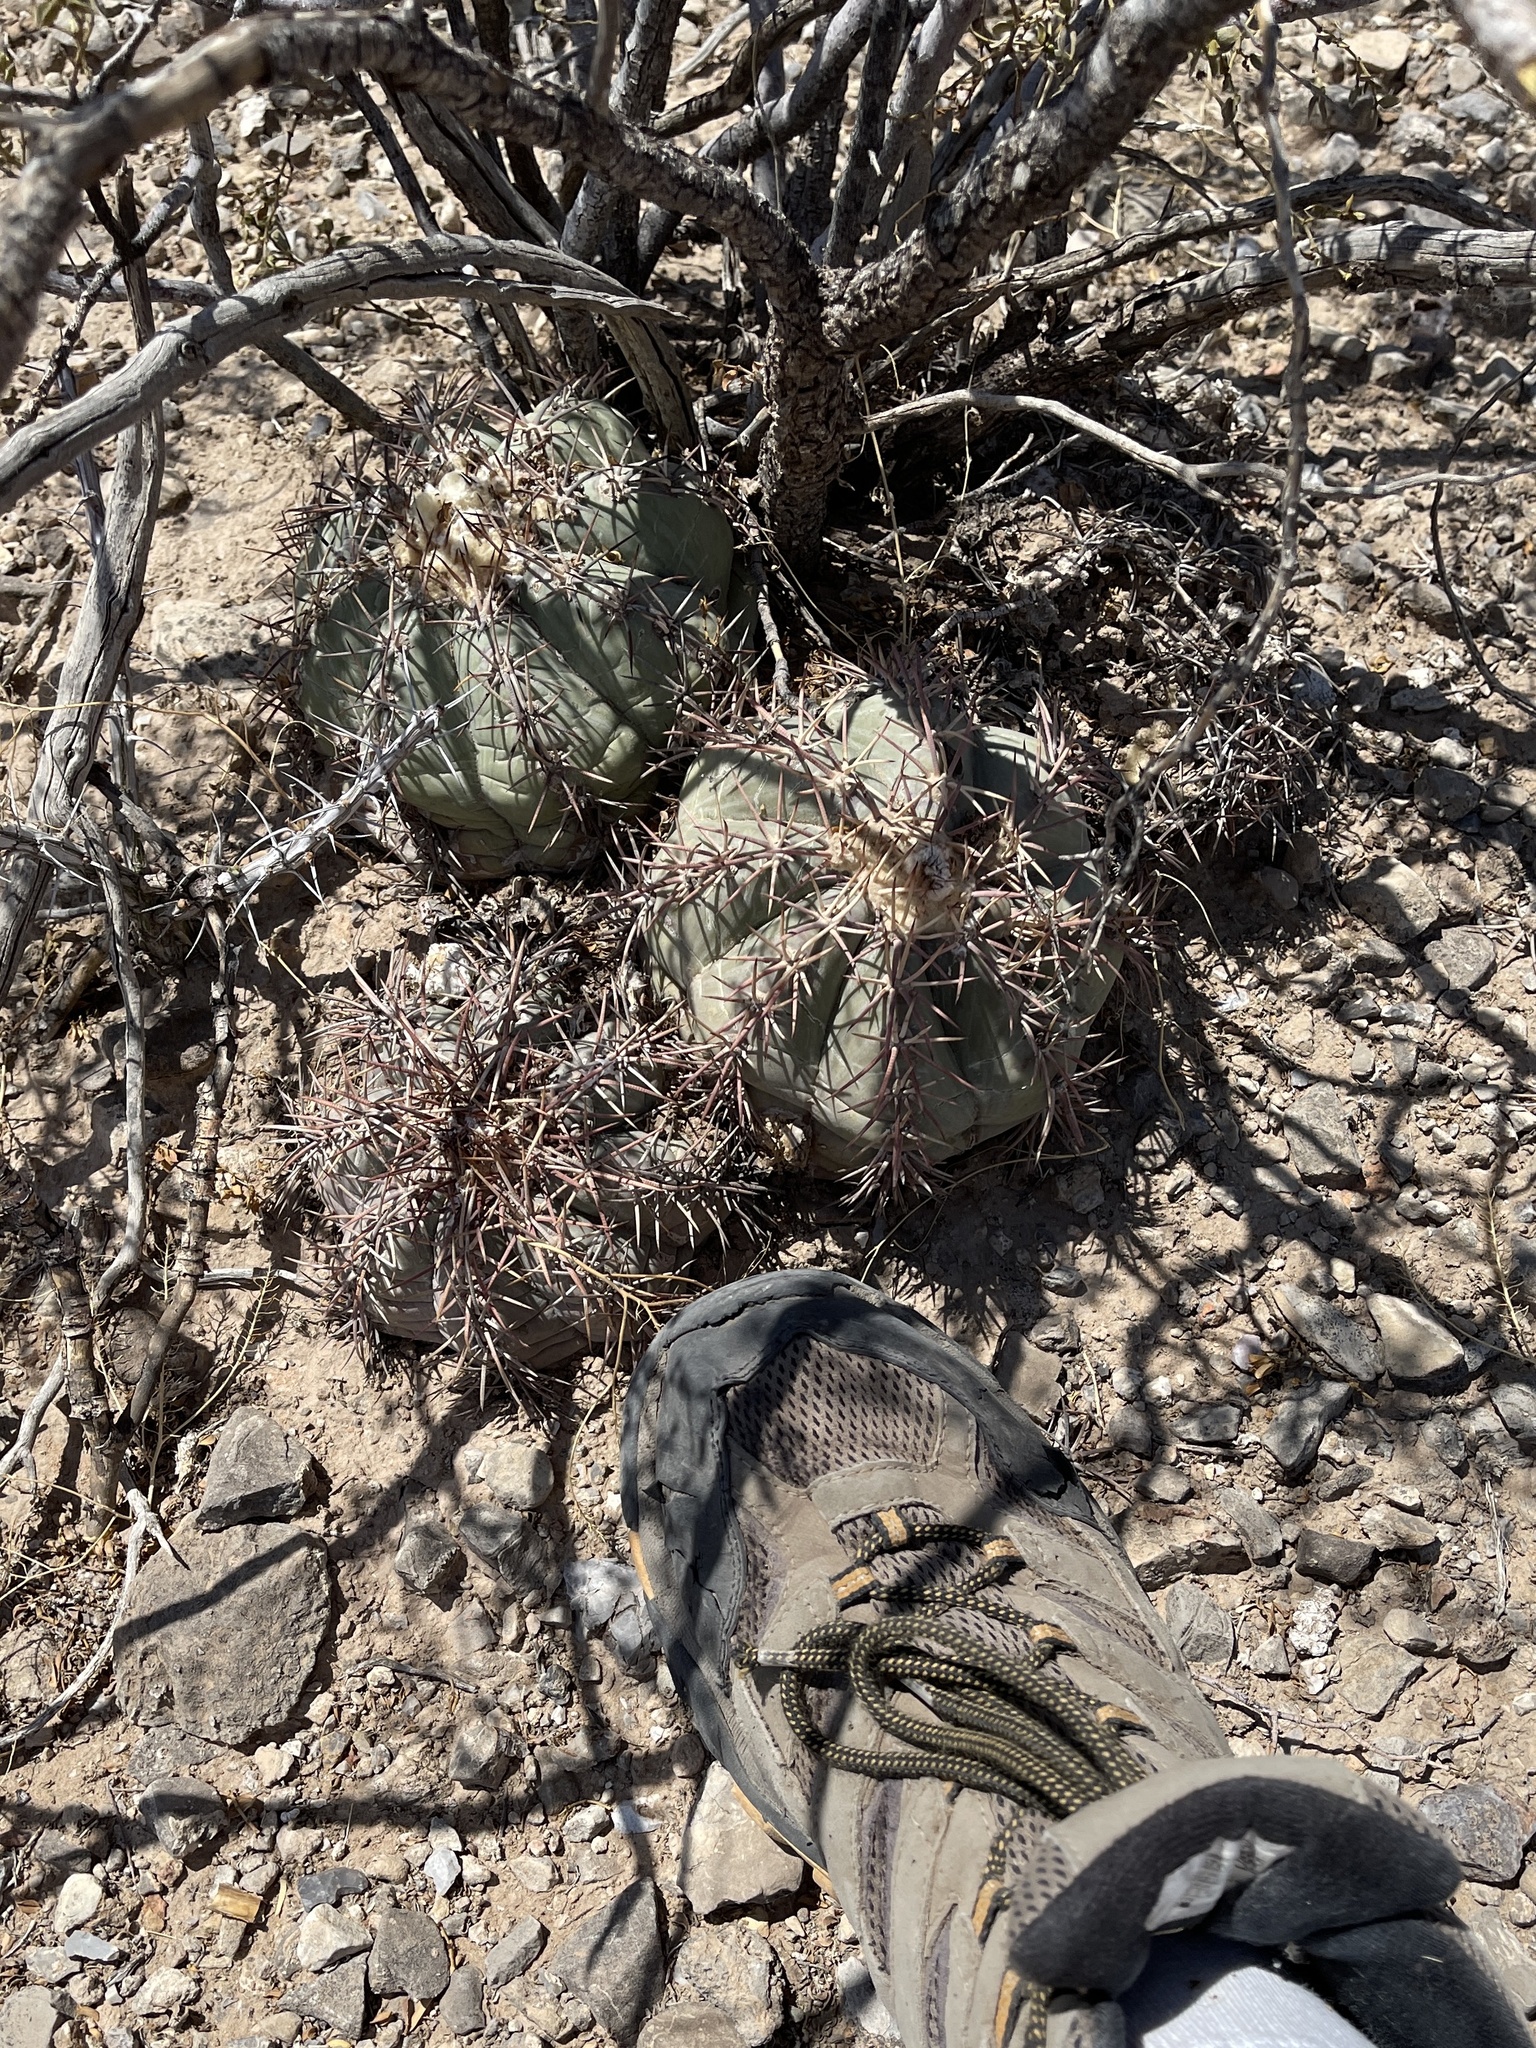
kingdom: Plantae
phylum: Tracheophyta
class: Magnoliopsida
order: Caryophyllales
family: Cactaceae
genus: Echinocactus
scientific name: Echinocactus horizonthalonius
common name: Devilshead
